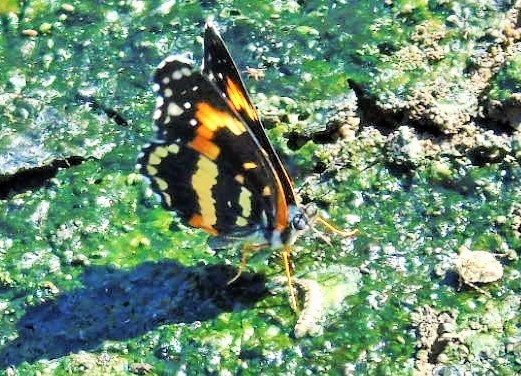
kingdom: Animalia
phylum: Arthropoda
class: Insecta
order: Lepidoptera
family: Nymphalidae
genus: Chlosyne
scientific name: Chlosyne lacinia
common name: Bordered patch
